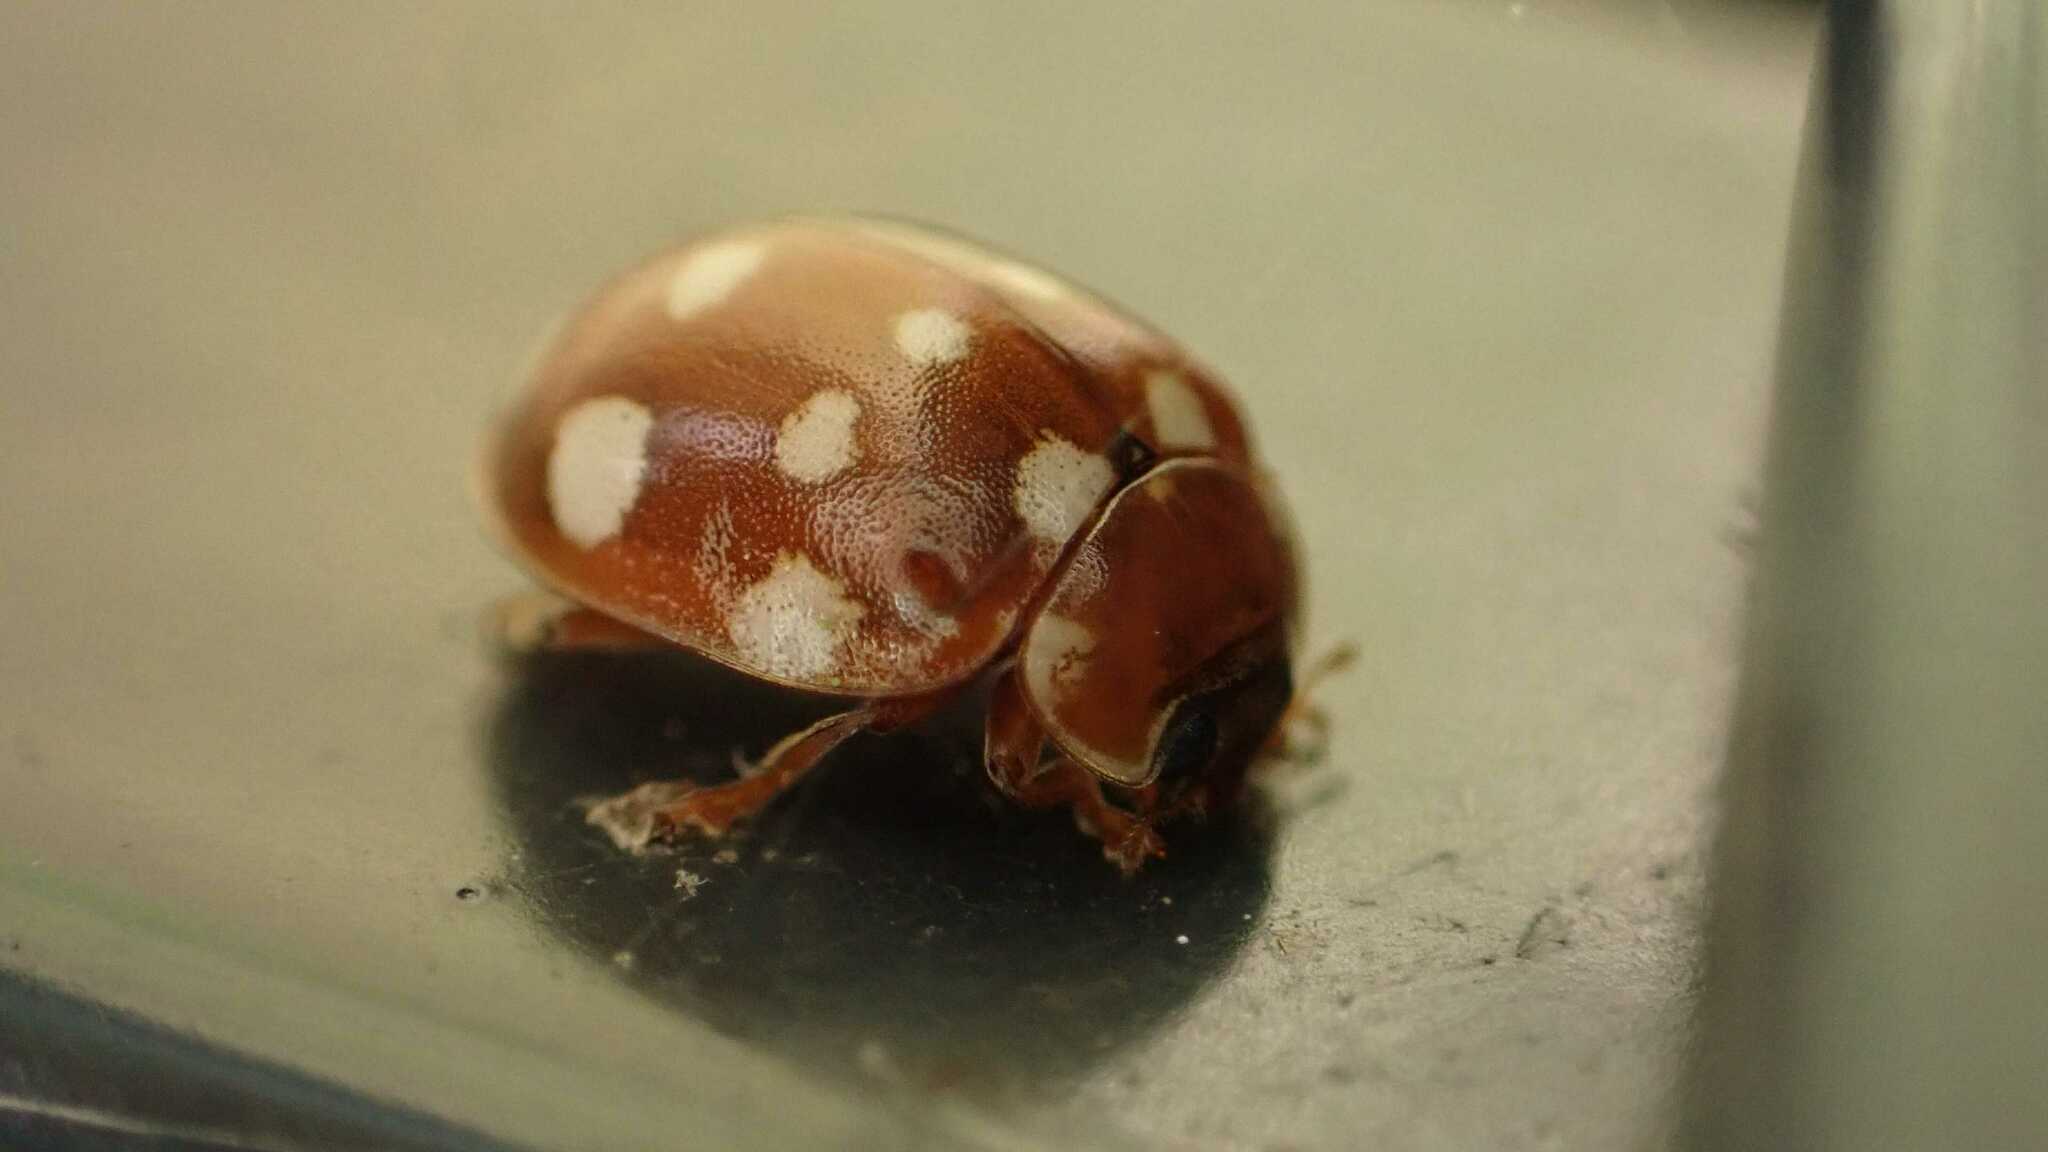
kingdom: Animalia
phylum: Arthropoda
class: Insecta
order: Coleoptera
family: Coccinellidae
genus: Calvia
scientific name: Calvia quatuordecimguttata
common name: Cream-spot ladybird
